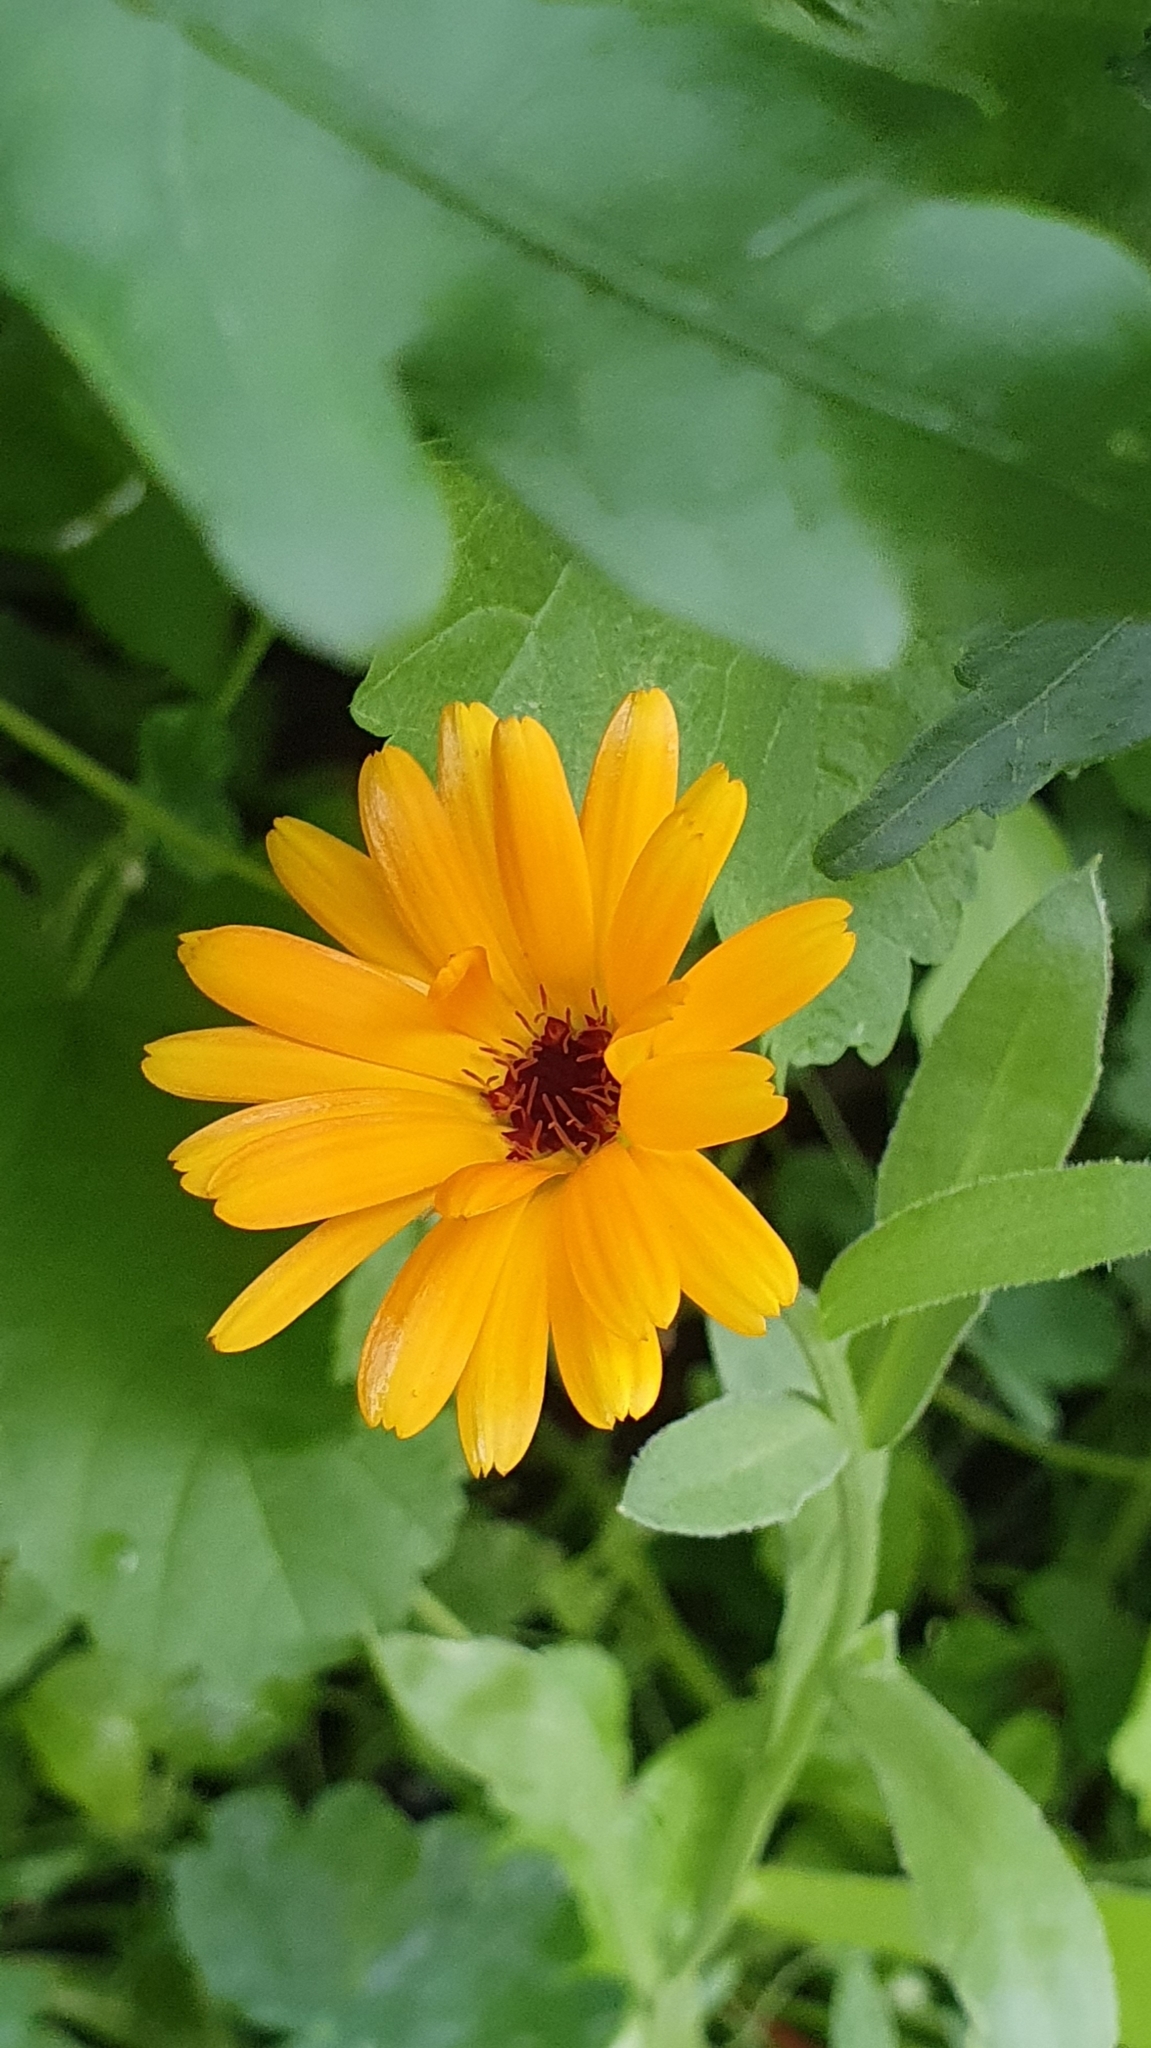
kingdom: Plantae
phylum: Tracheophyta
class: Magnoliopsida
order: Asterales
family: Asteraceae
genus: Calendula
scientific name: Calendula officinalis
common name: Pot marigold
